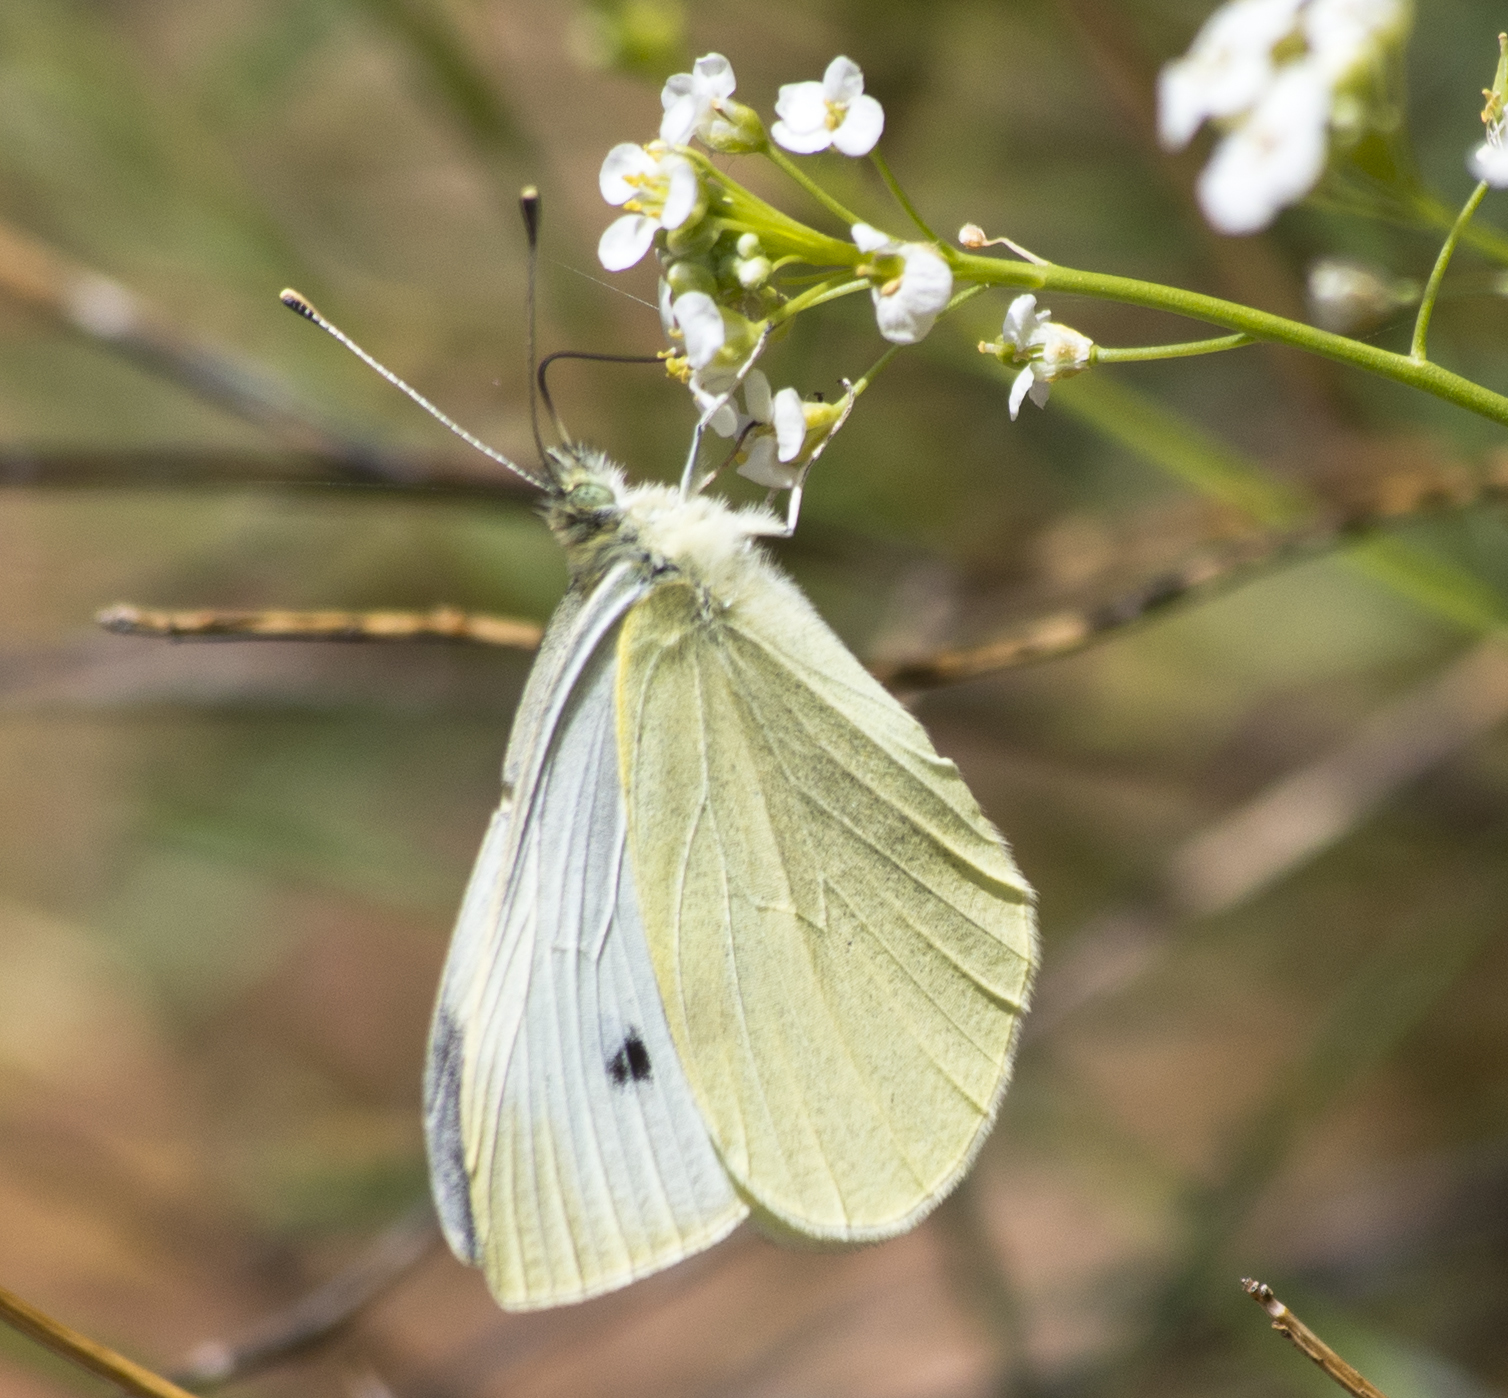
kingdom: Animalia
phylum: Arthropoda
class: Insecta
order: Lepidoptera
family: Pieridae
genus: Pieris
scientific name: Pieris rapae
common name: Small white
